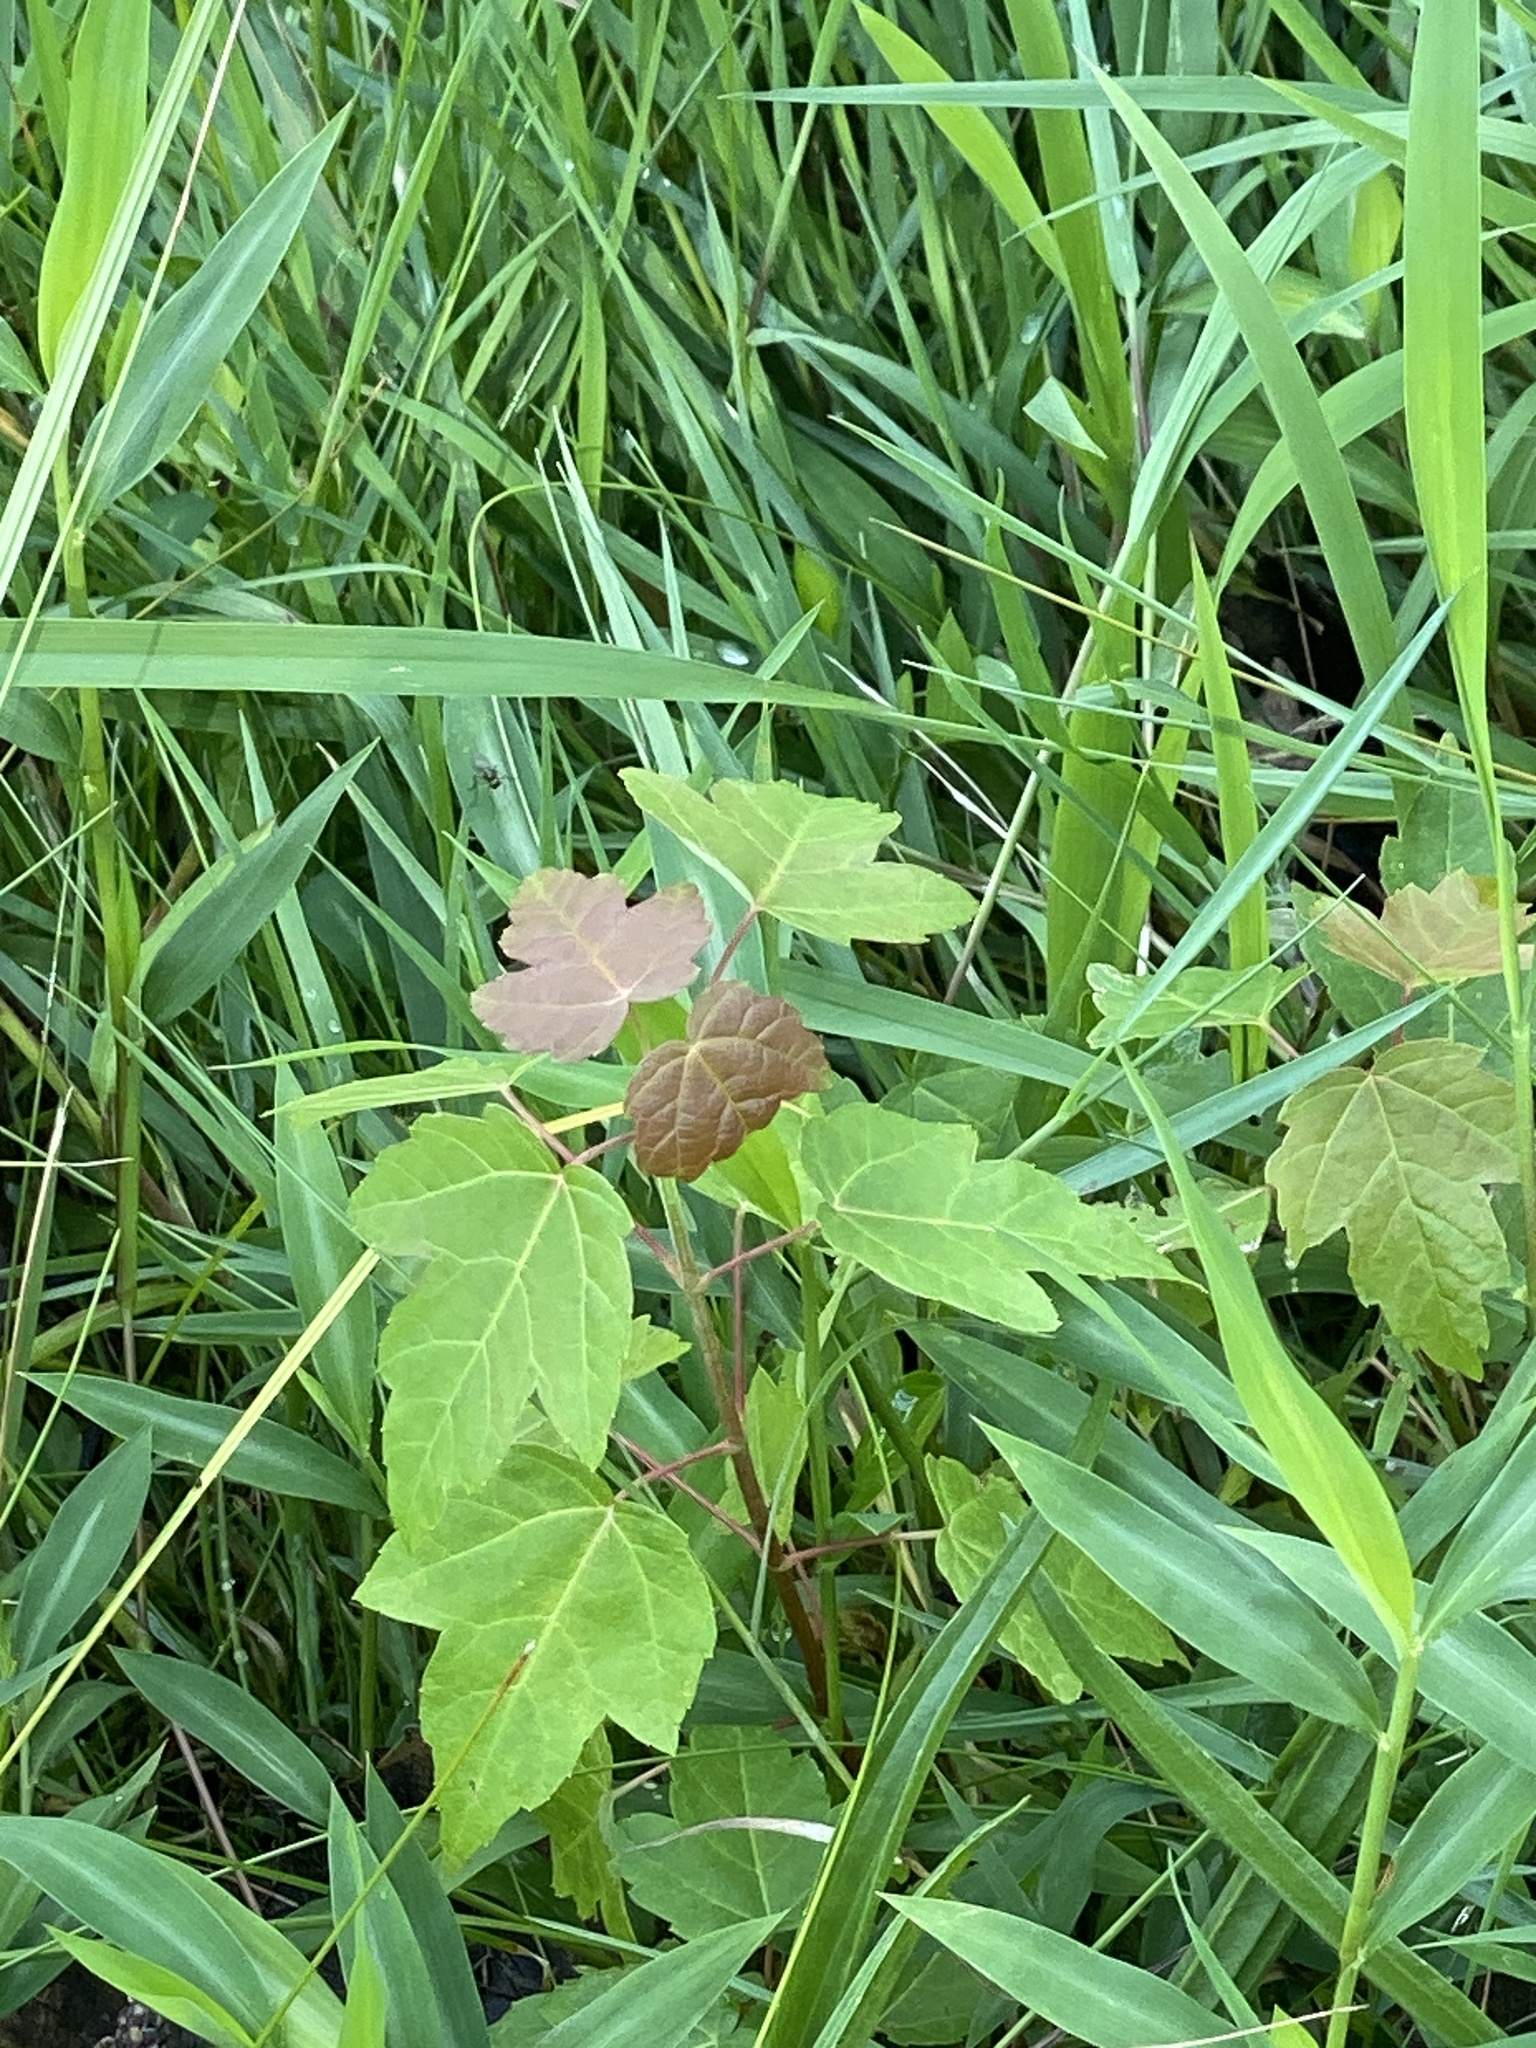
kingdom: Plantae
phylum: Tracheophyta
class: Magnoliopsida
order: Sapindales
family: Sapindaceae
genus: Acer
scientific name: Acer rubrum
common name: Red maple
